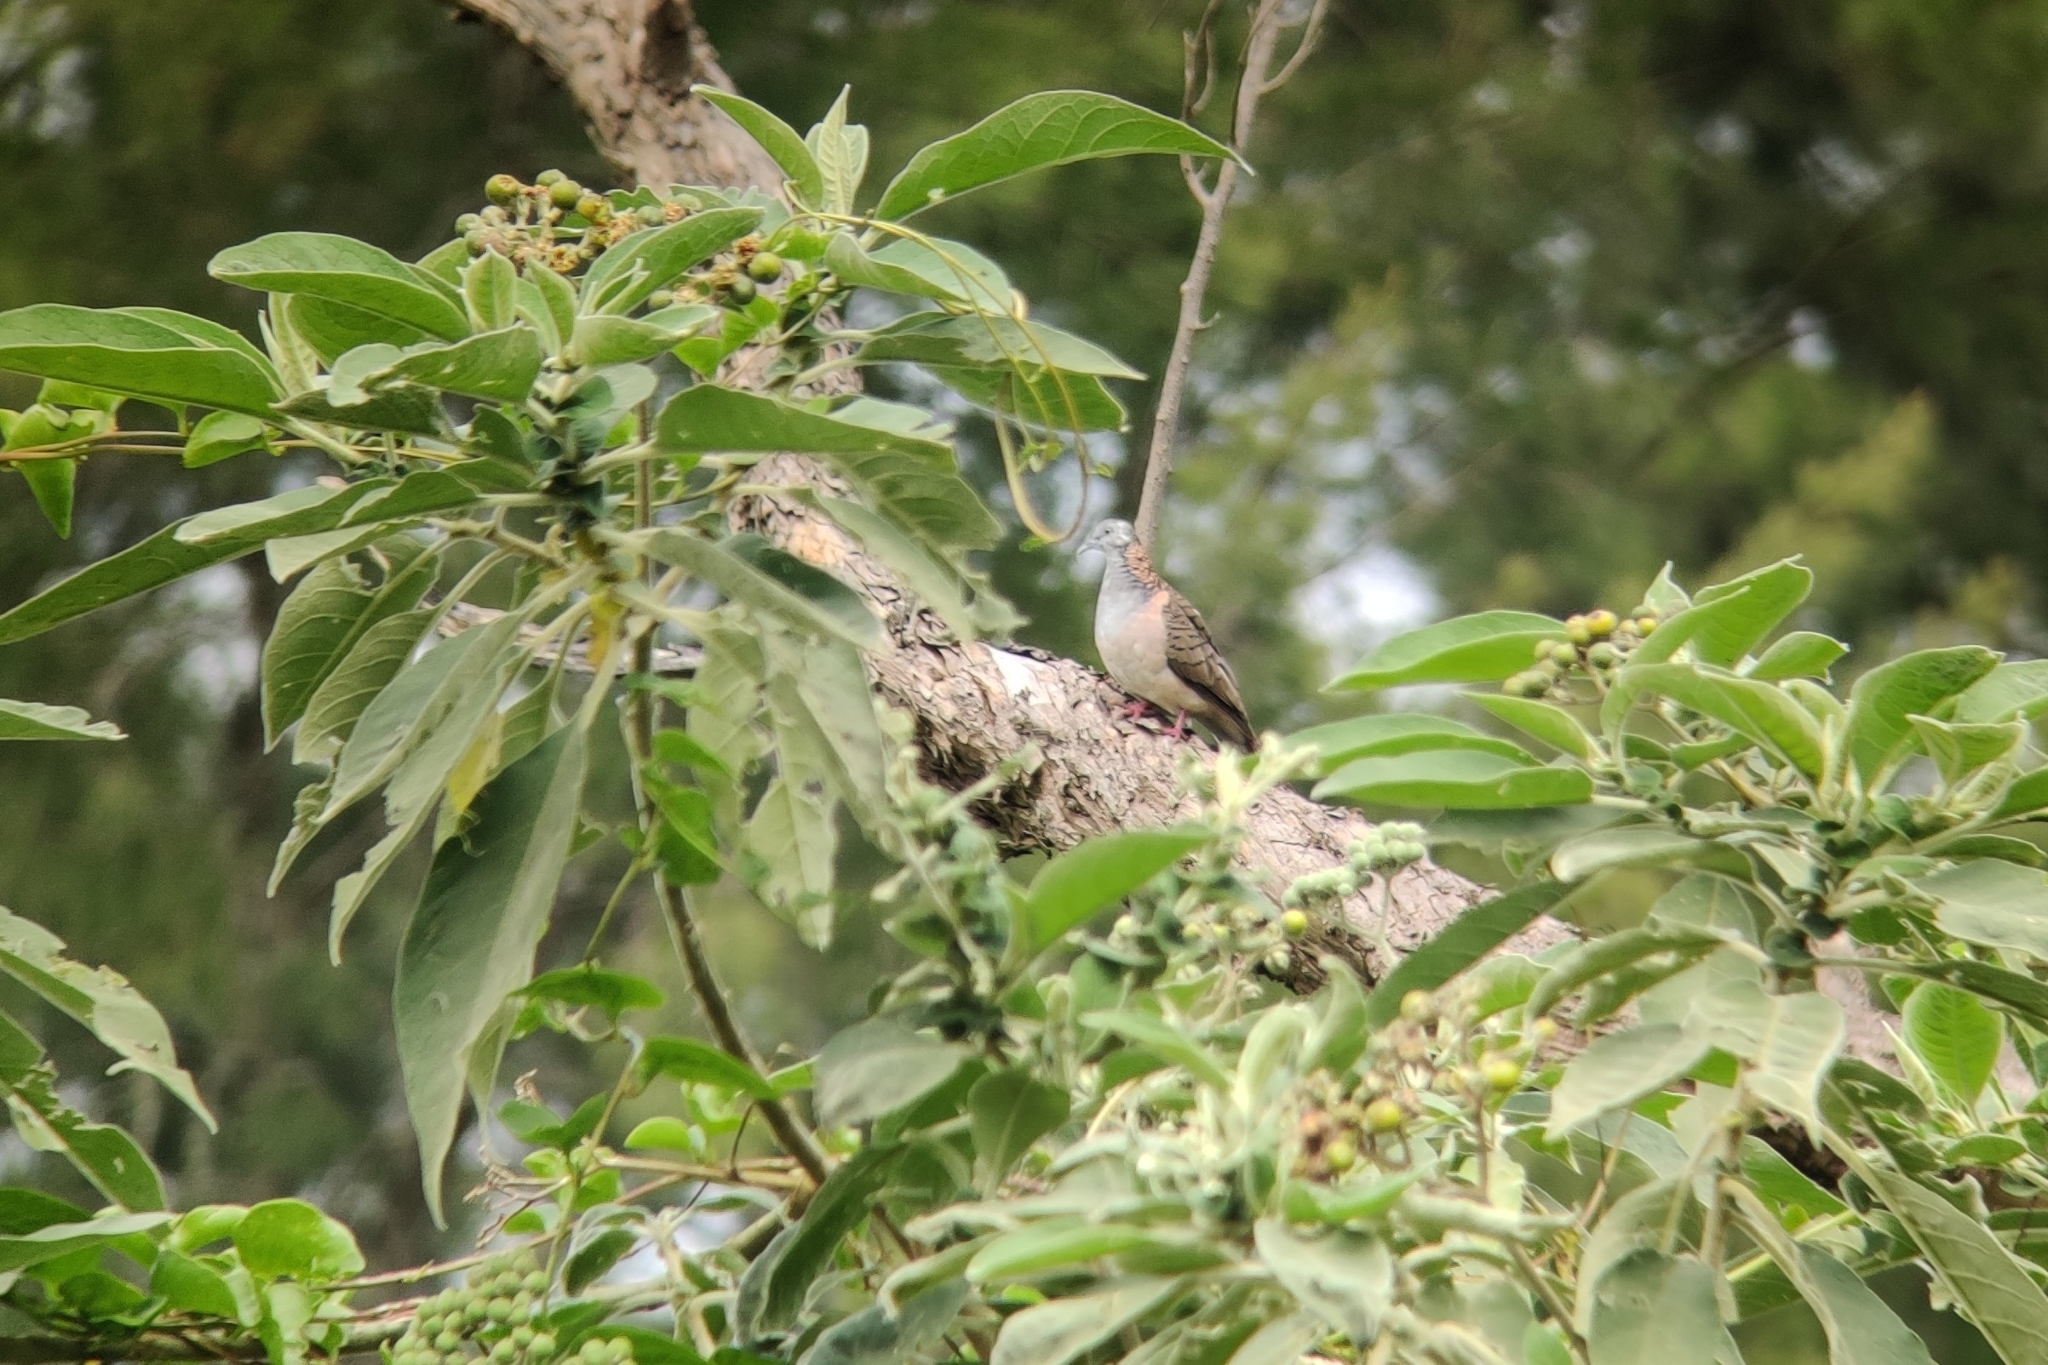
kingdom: Animalia
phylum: Chordata
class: Aves
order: Columbiformes
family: Columbidae
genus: Geopelia
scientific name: Geopelia humeralis
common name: Bar-shouldered dove
